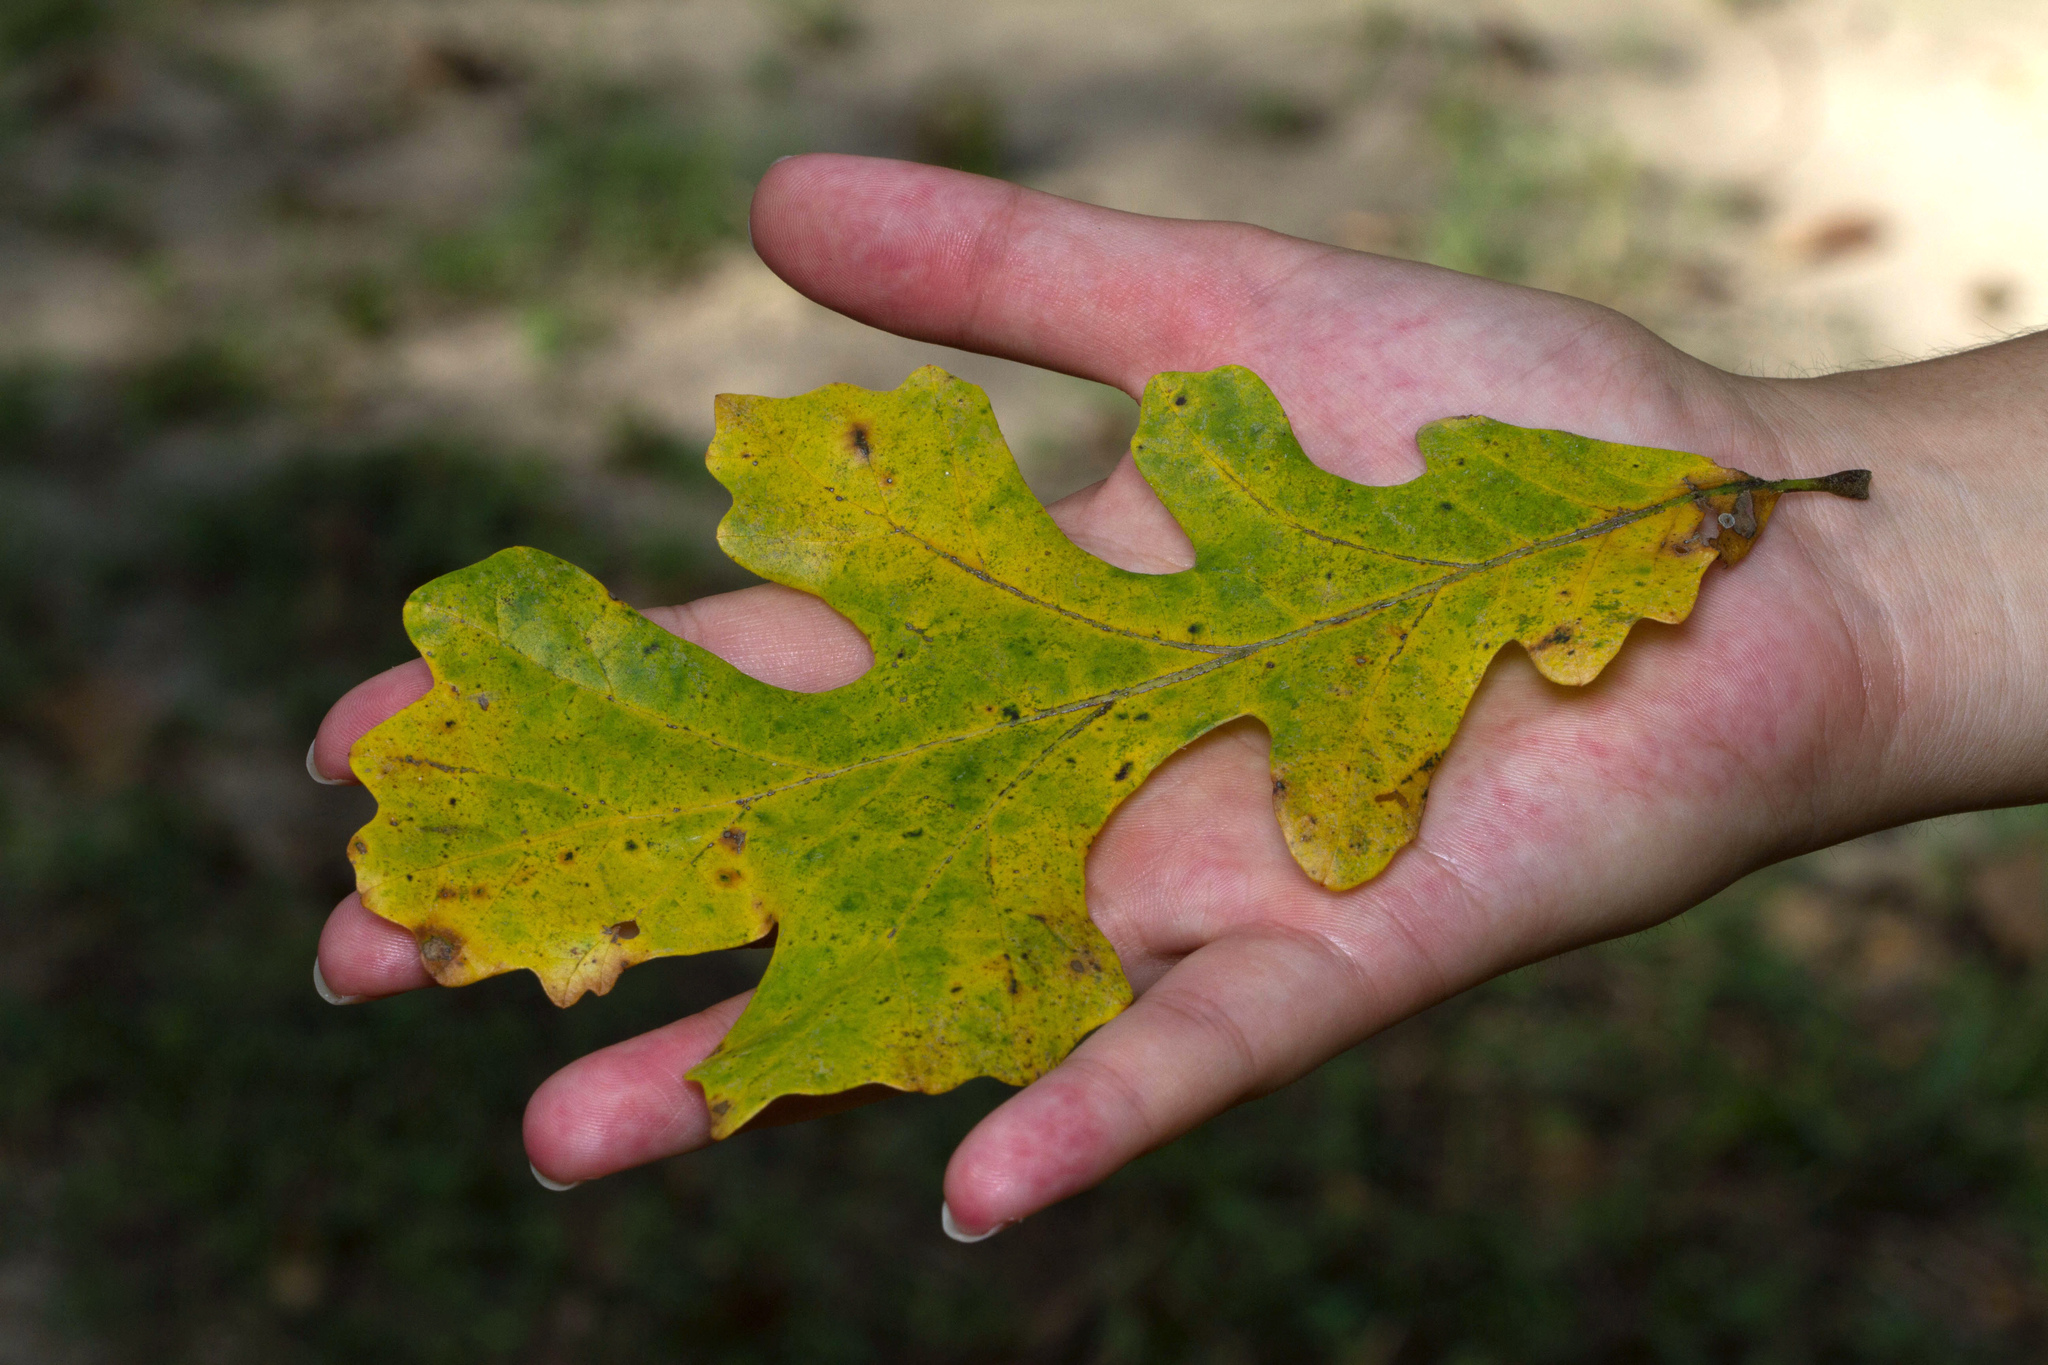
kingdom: Plantae
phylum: Tracheophyta
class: Magnoliopsida
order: Fagales
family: Fagaceae
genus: Quercus
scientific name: Quercus macrocarpa
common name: Bur oak
